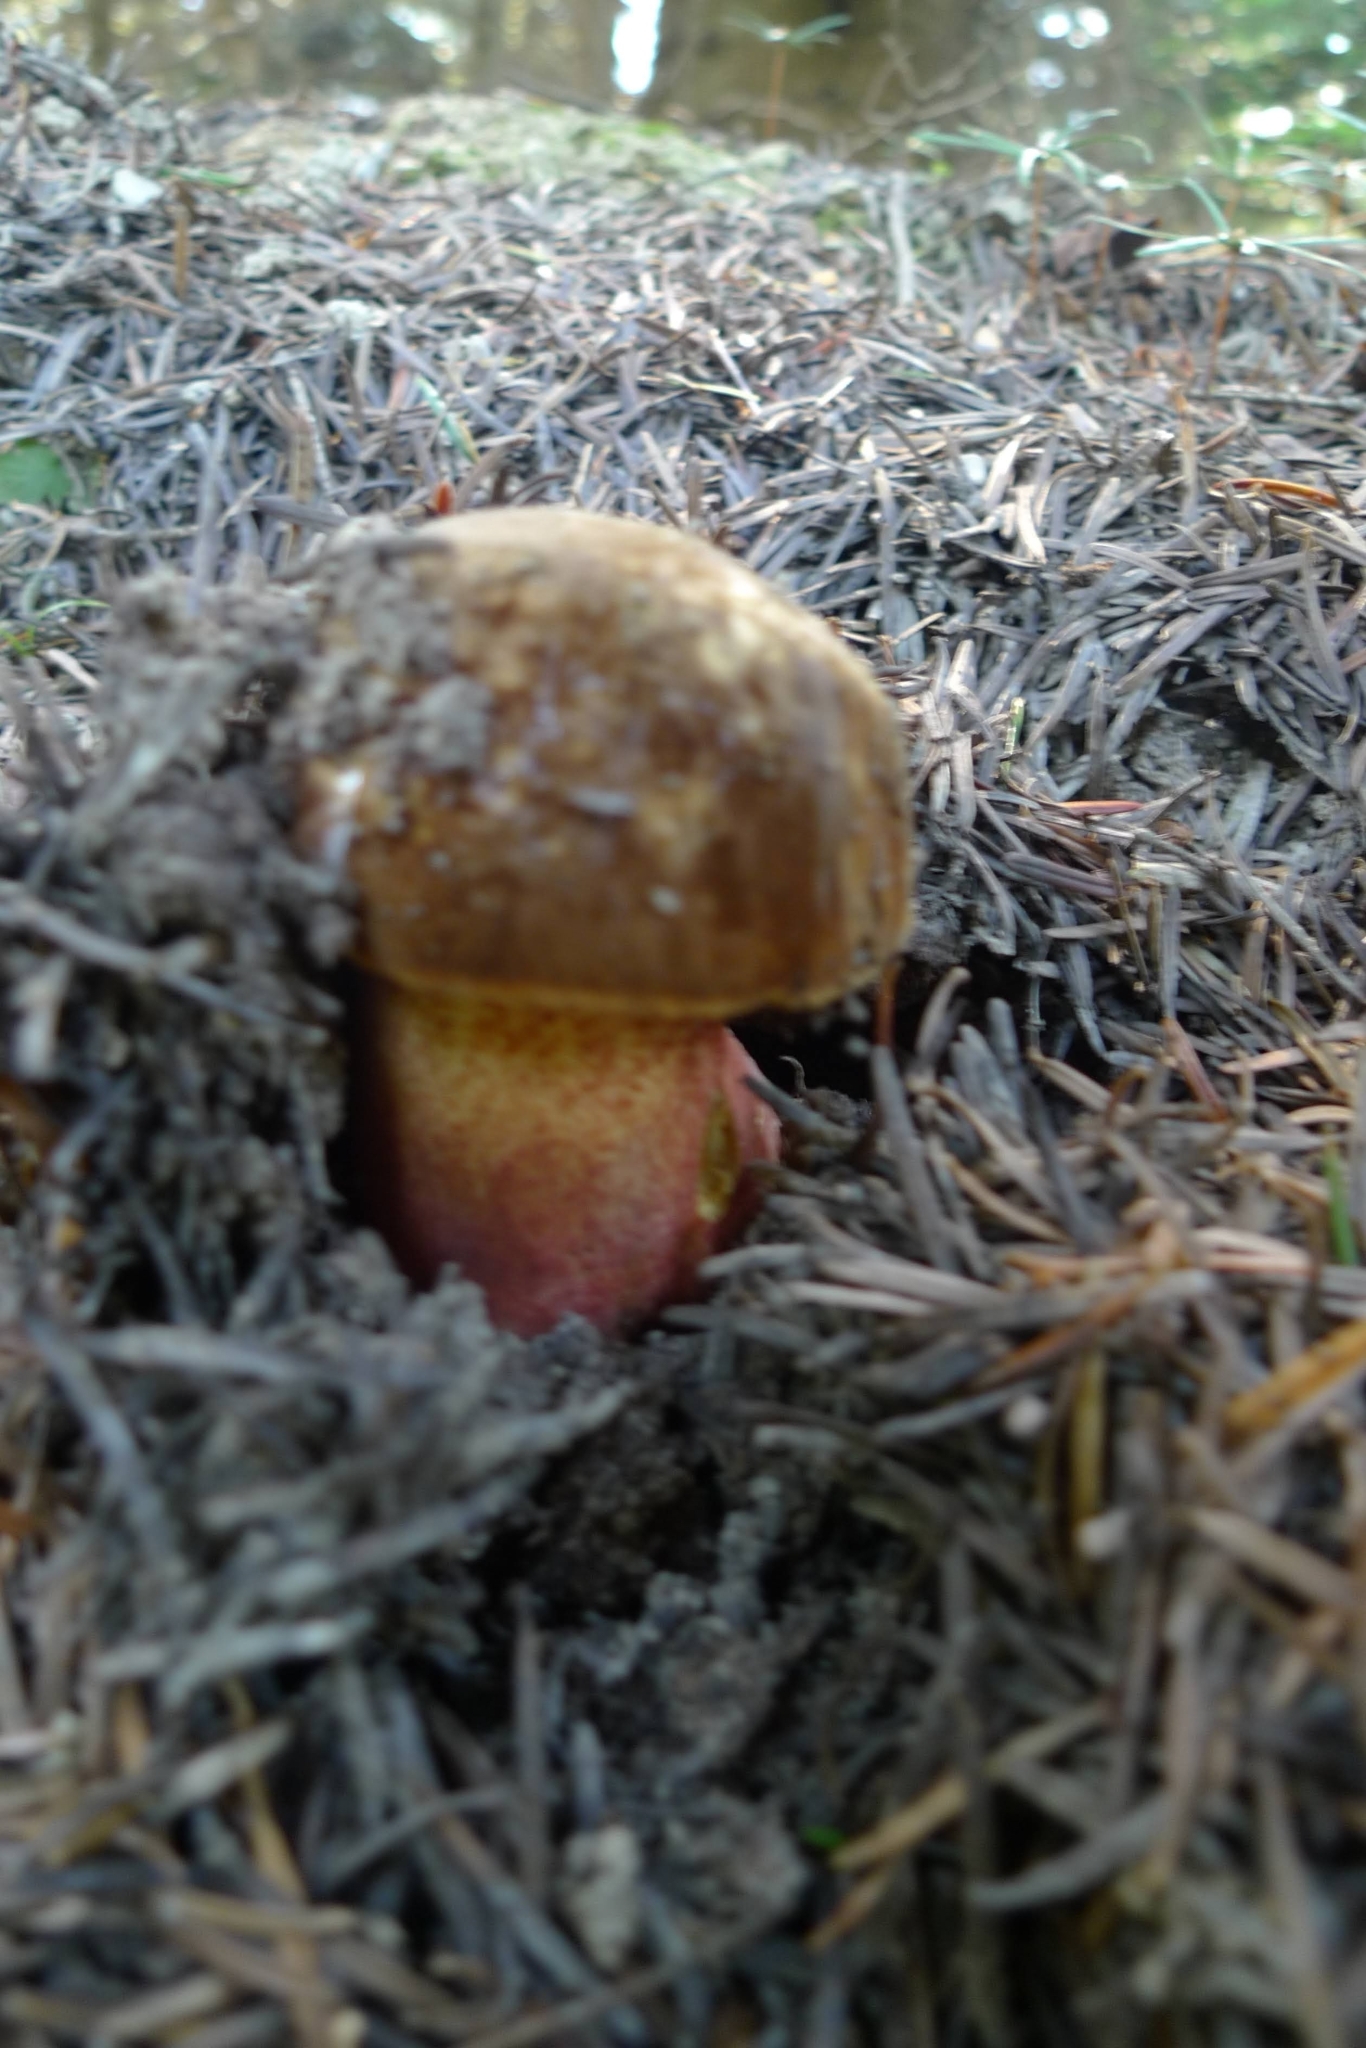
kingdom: Fungi
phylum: Basidiomycota
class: Agaricomycetes
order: Boletales
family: Boletaceae
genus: Neoboletus
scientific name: Neoboletus luridiformis
